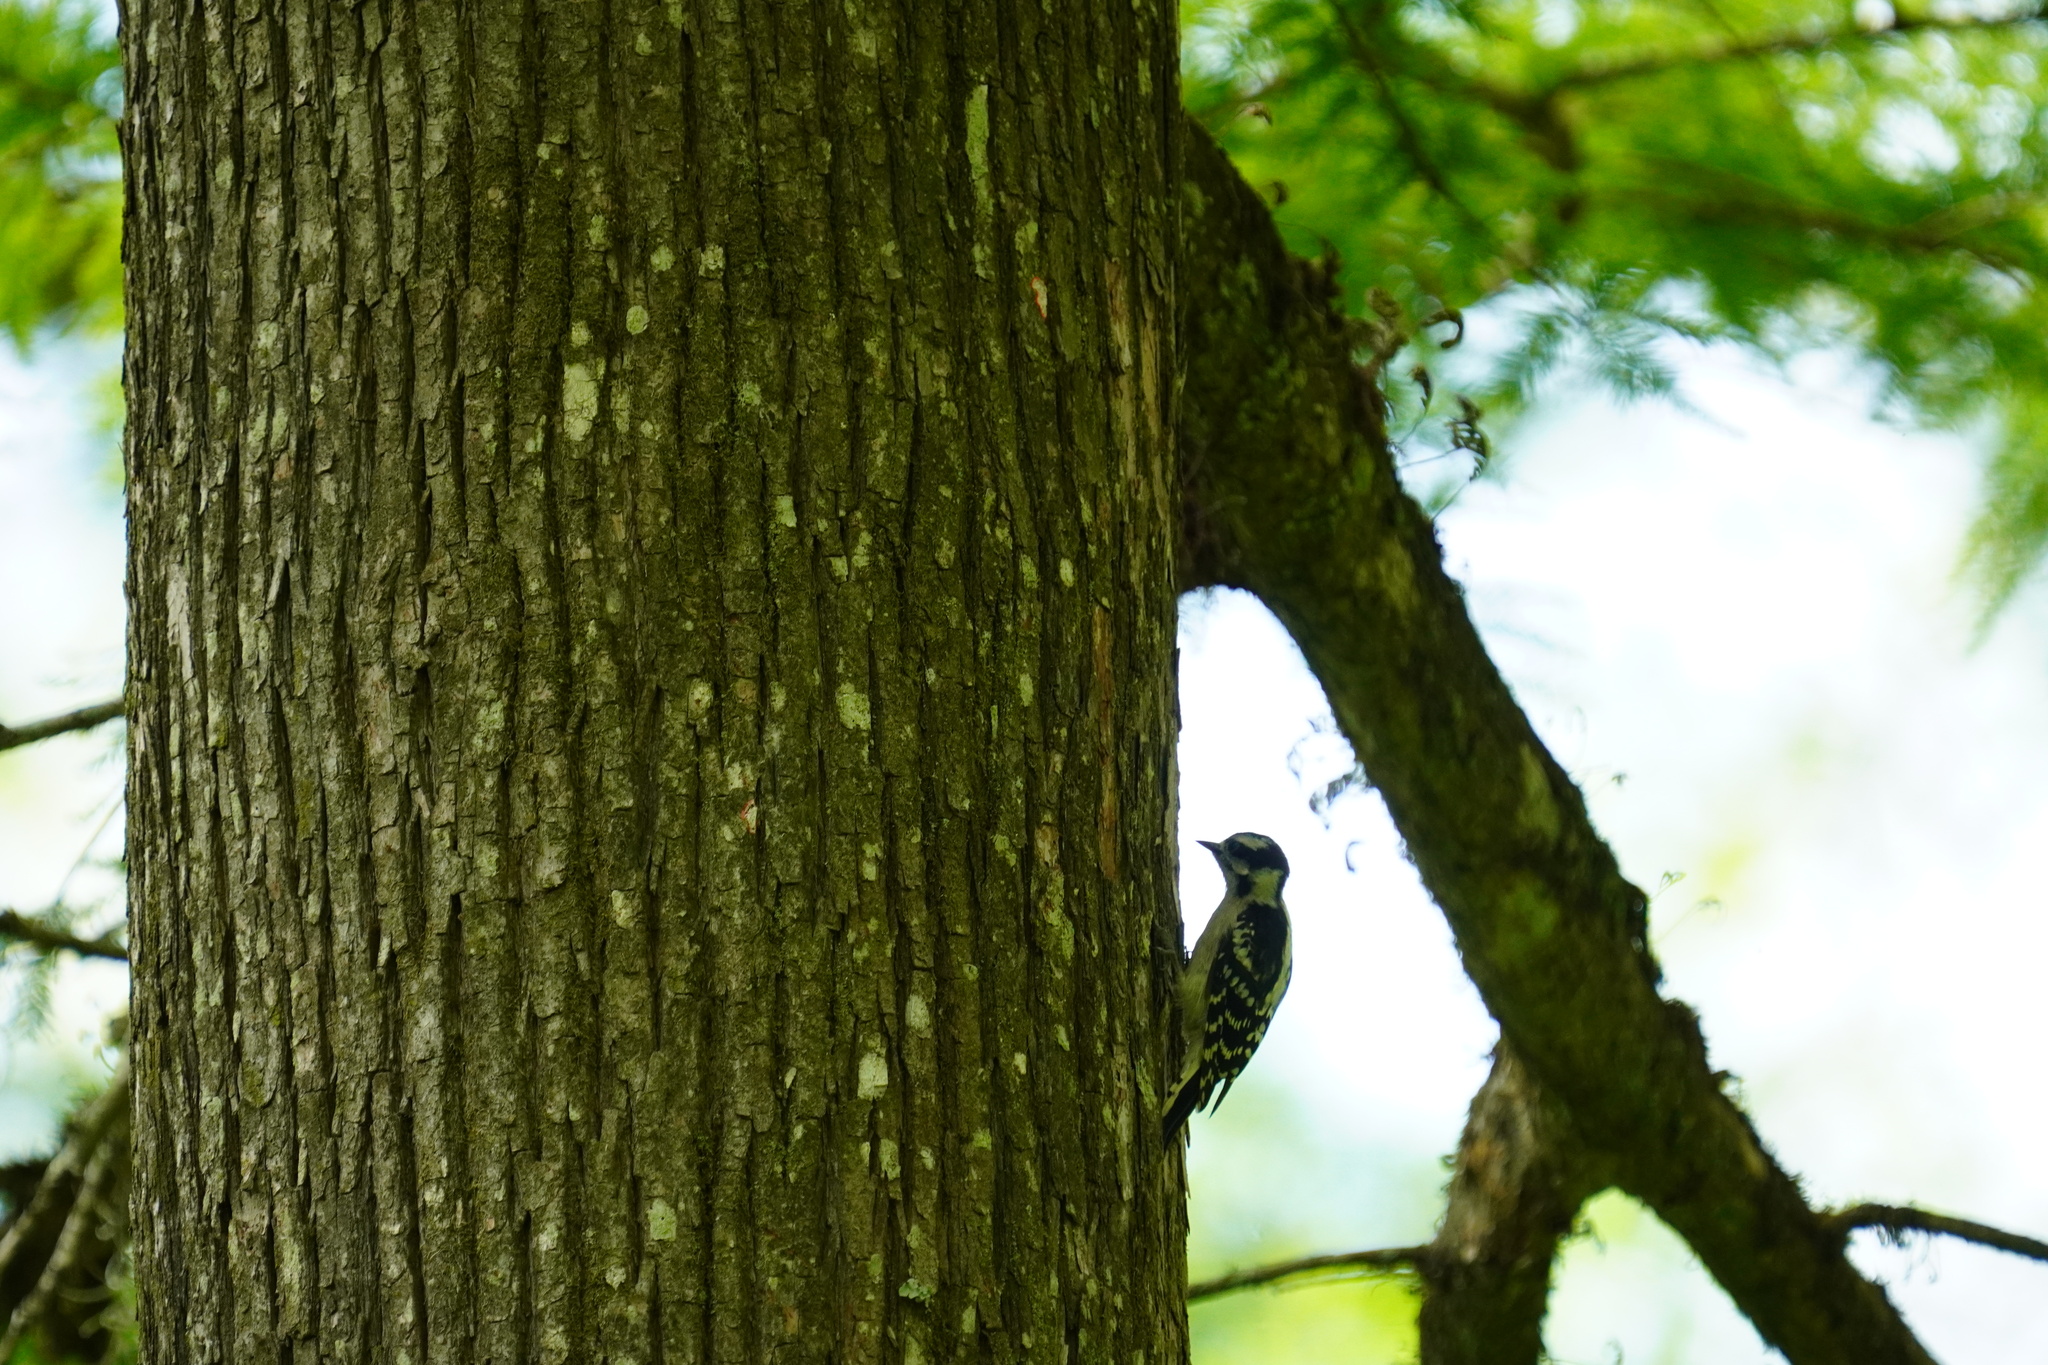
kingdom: Animalia
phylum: Chordata
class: Aves
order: Piciformes
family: Picidae
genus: Dryobates
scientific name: Dryobates pubescens
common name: Downy woodpecker
